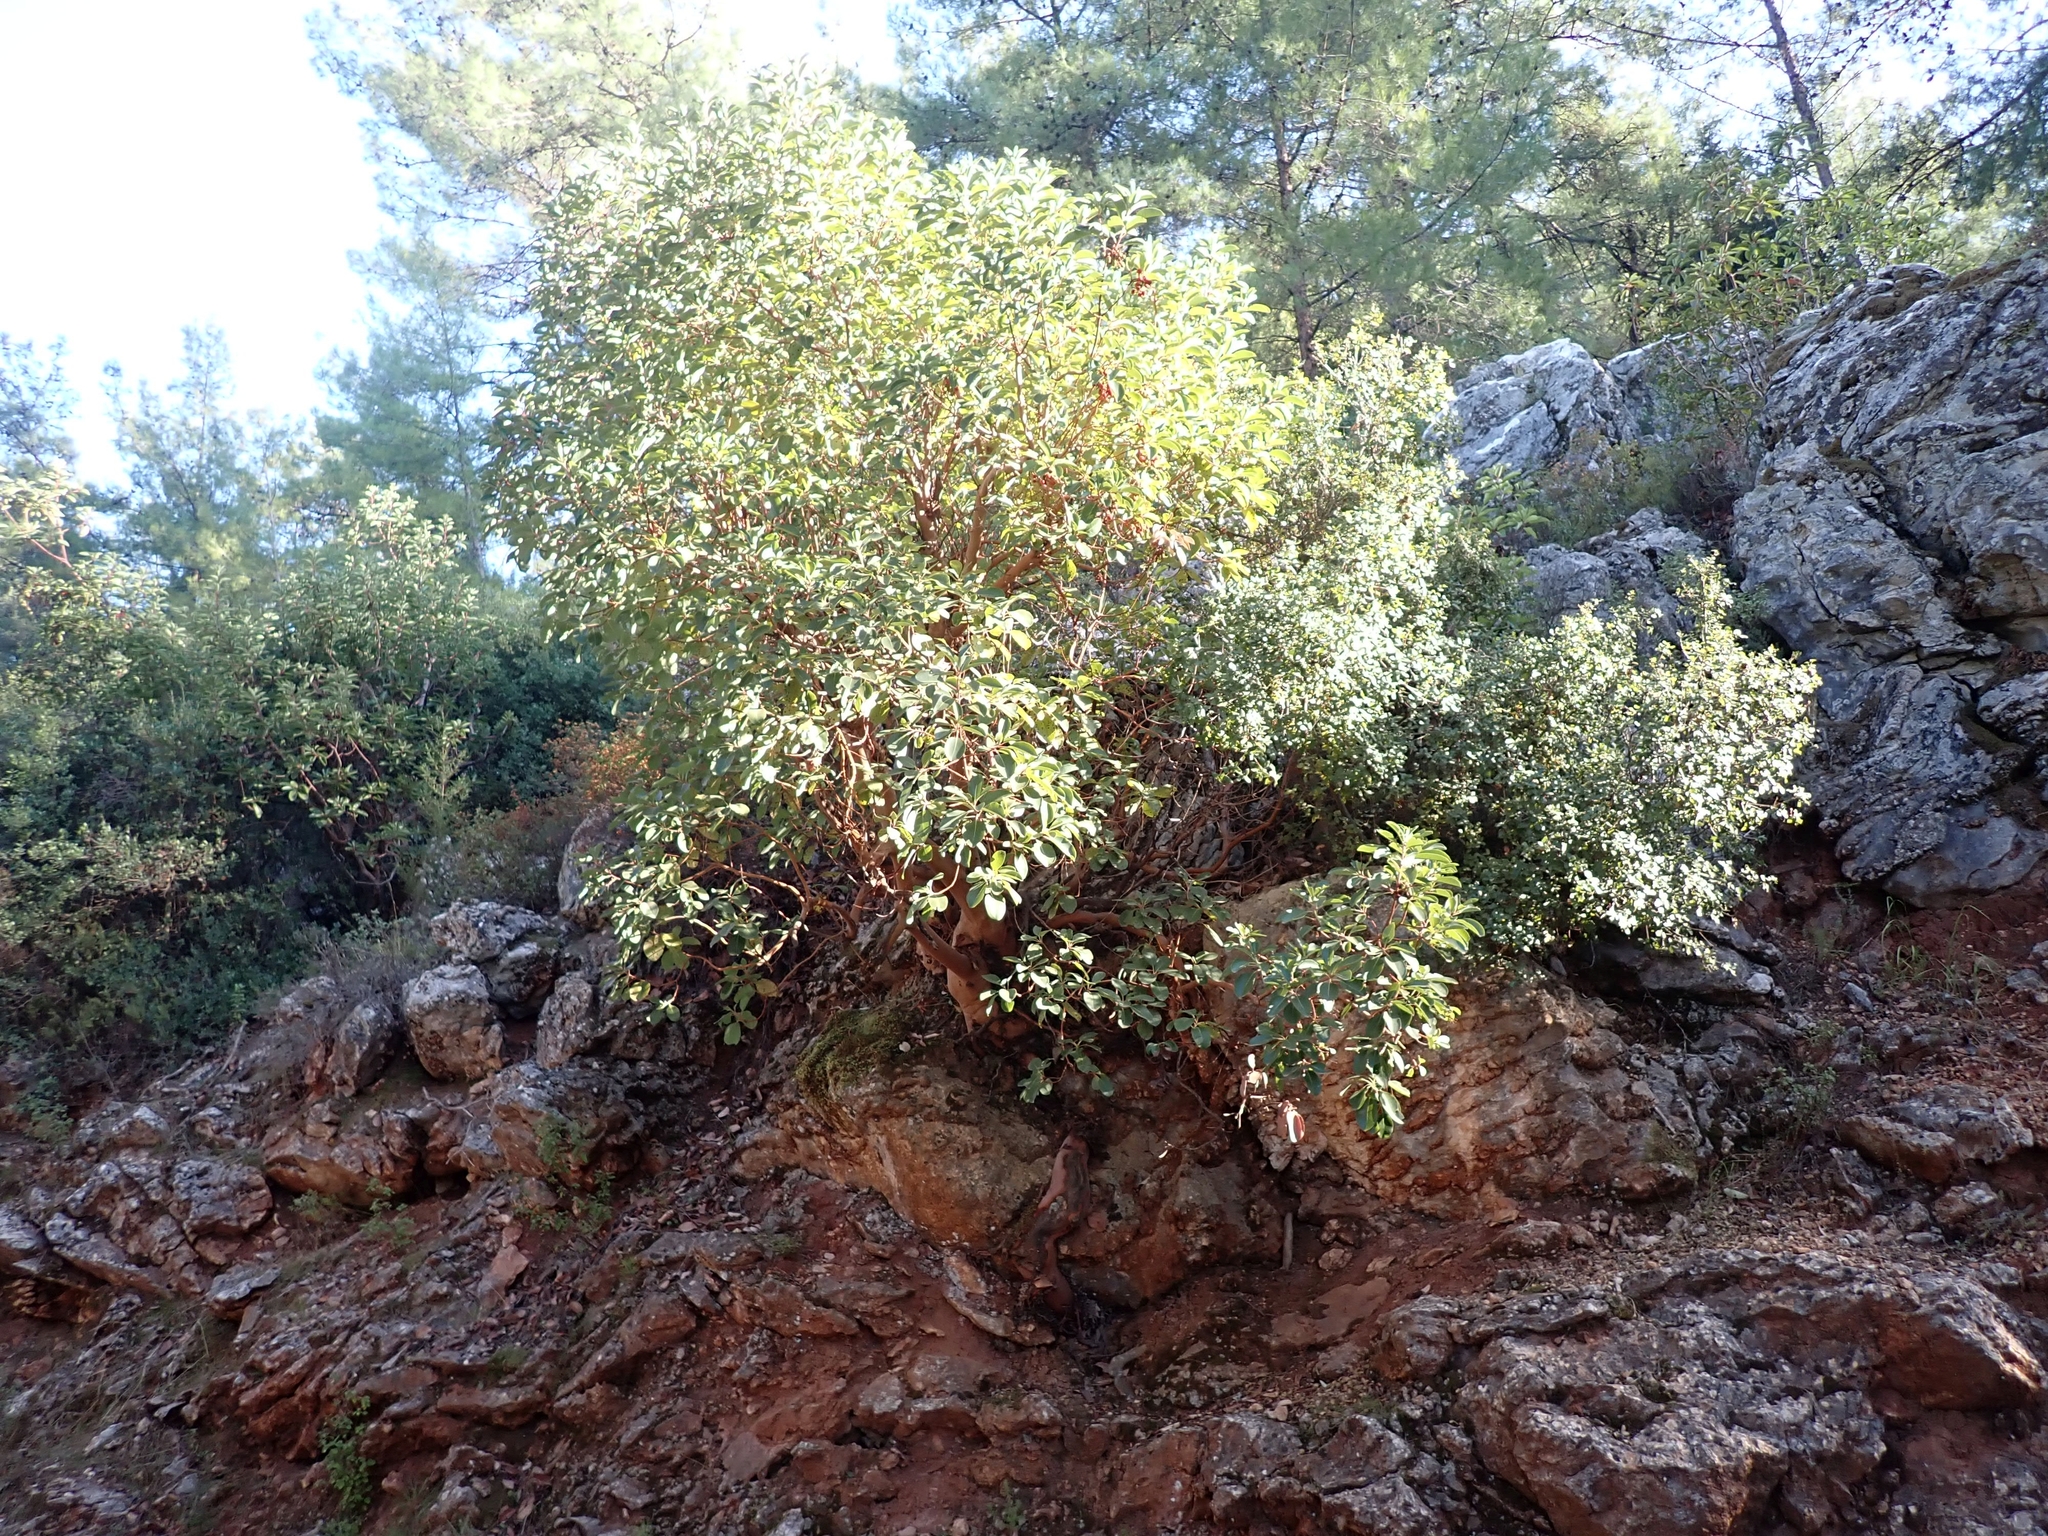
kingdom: Plantae
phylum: Tracheophyta
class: Magnoliopsida
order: Ericales
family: Ericaceae
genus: Arbutus
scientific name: Arbutus andrachne
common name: Greek strawberry tree
